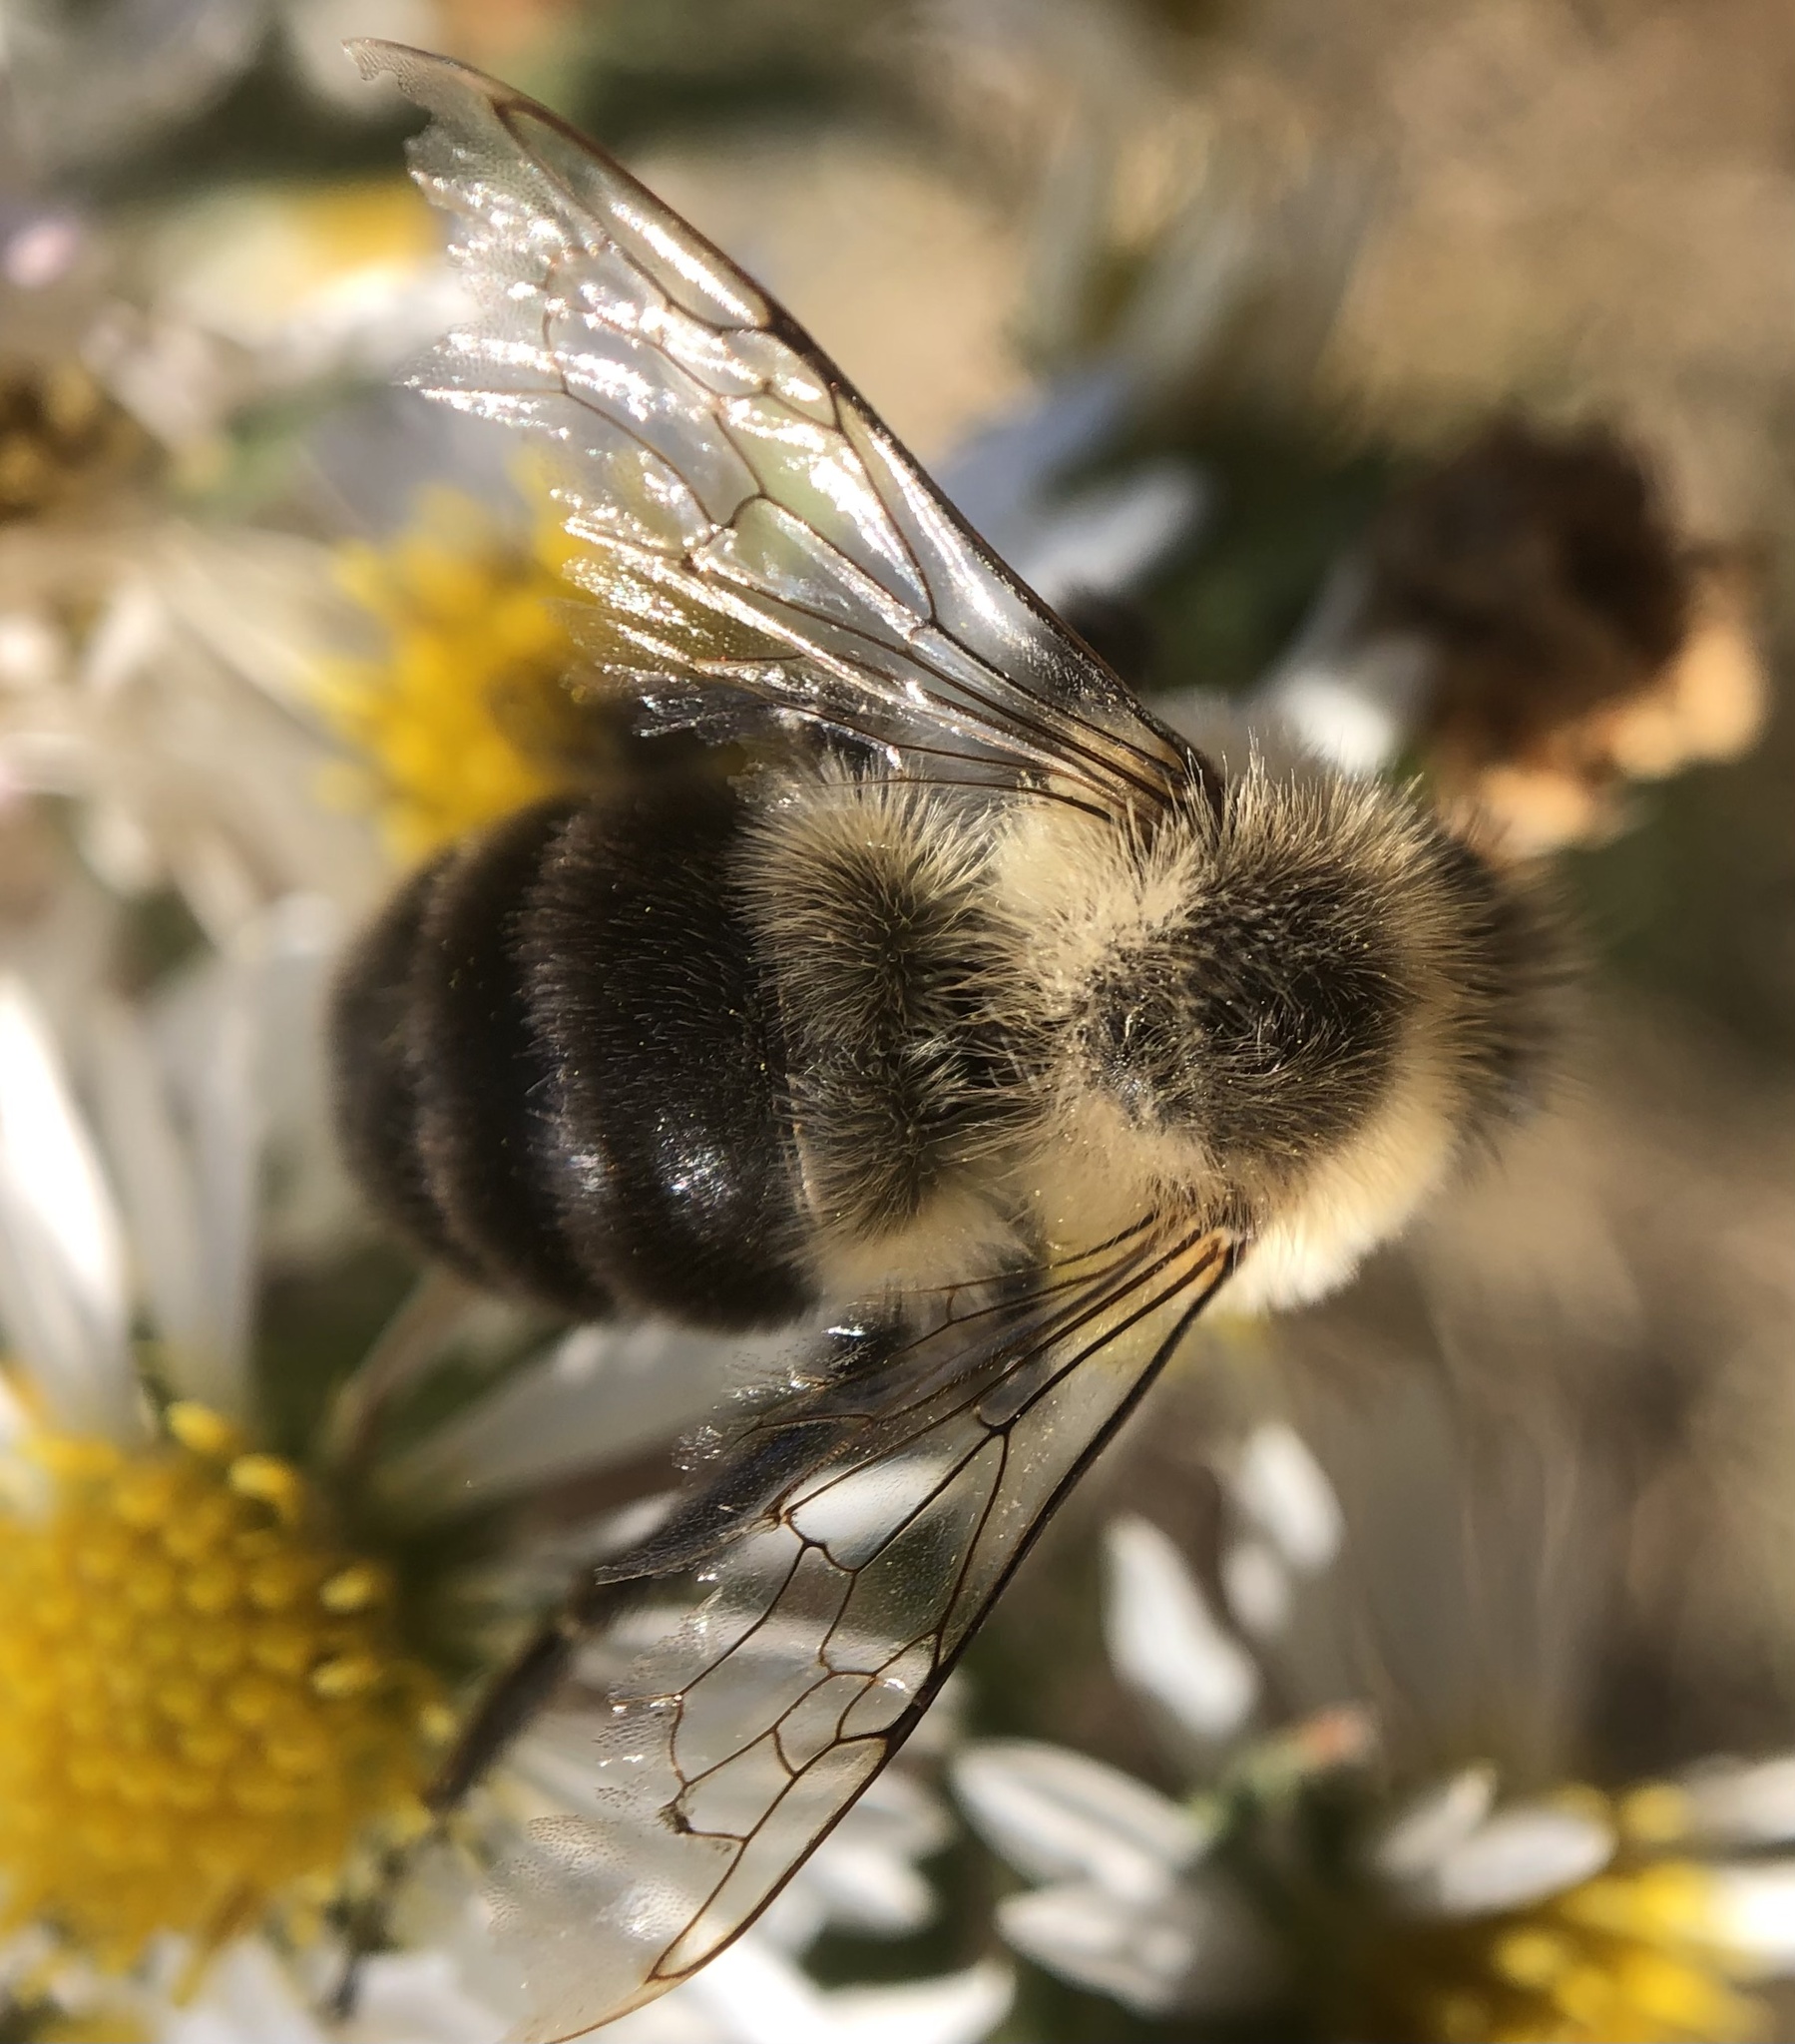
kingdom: Animalia
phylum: Arthropoda
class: Insecta
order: Hymenoptera
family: Apidae
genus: Bombus
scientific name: Bombus impatiens
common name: Common eastern bumble bee
